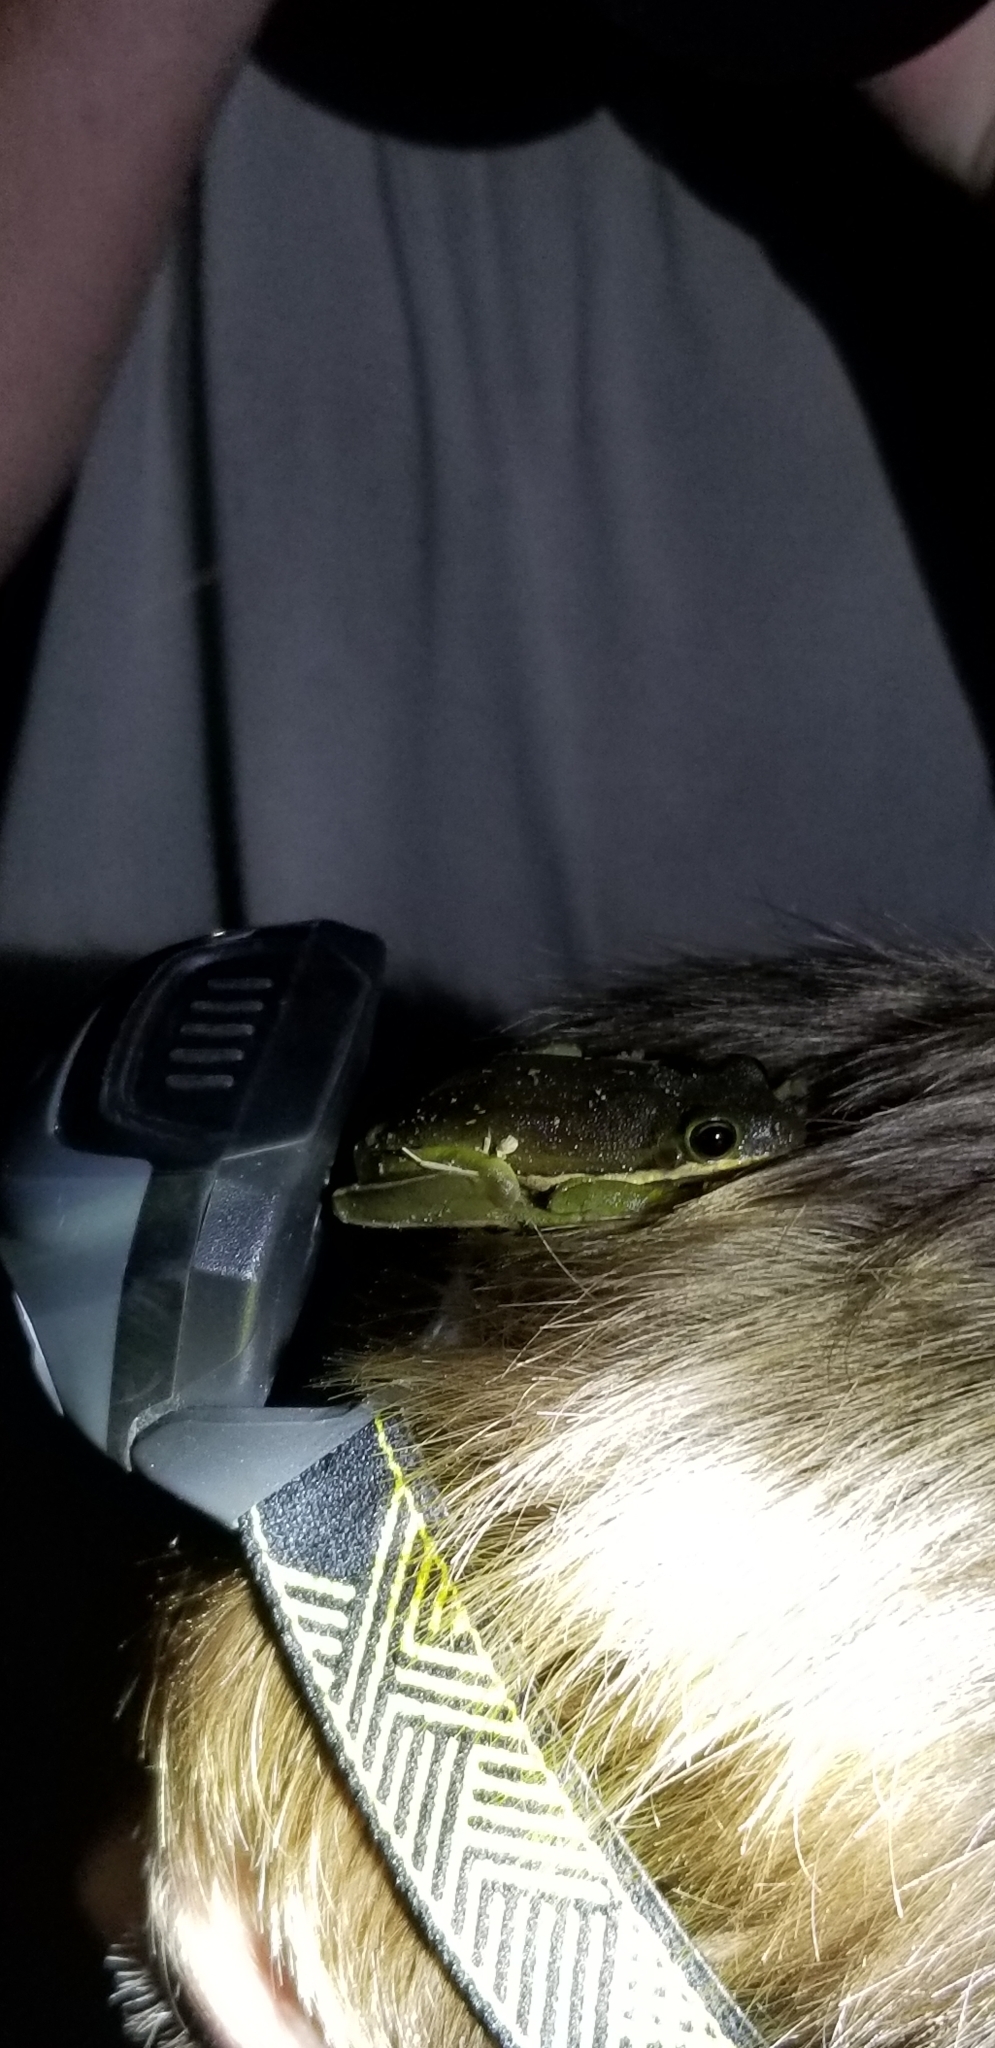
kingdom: Animalia
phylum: Chordata
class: Amphibia
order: Anura
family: Hylidae
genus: Dryophytes
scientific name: Dryophytes cinereus
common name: Green treefrog
